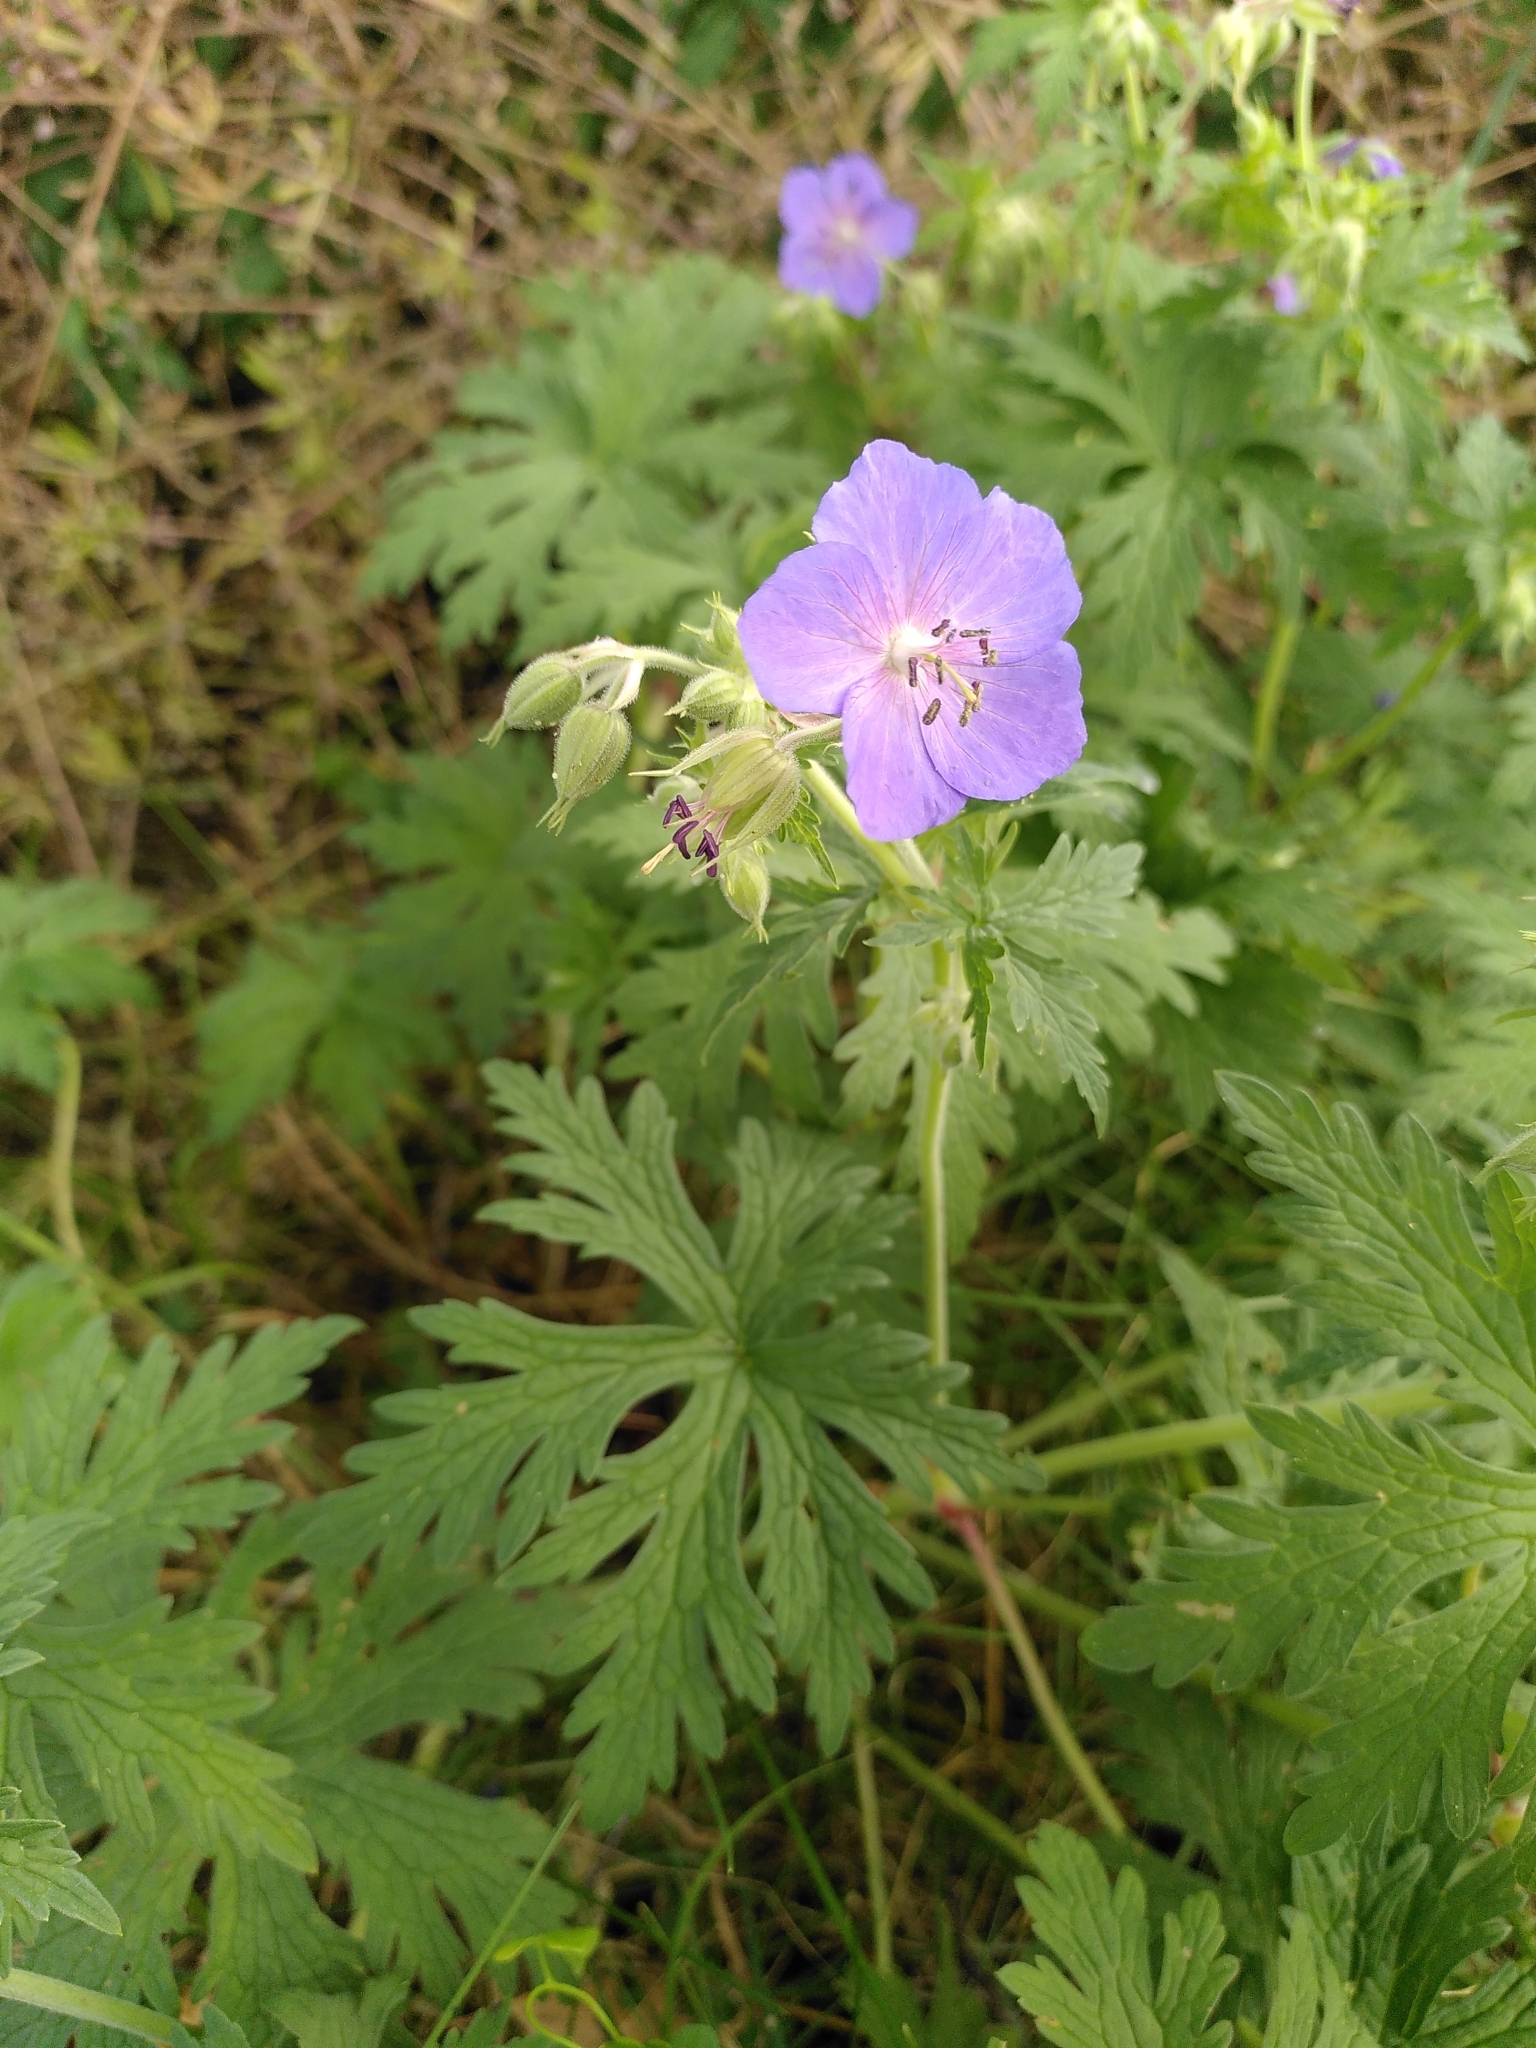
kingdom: Plantae
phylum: Tracheophyta
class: Magnoliopsida
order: Geraniales
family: Geraniaceae
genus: Geranium
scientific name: Geranium pratense
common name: Meadow crane's-bill
